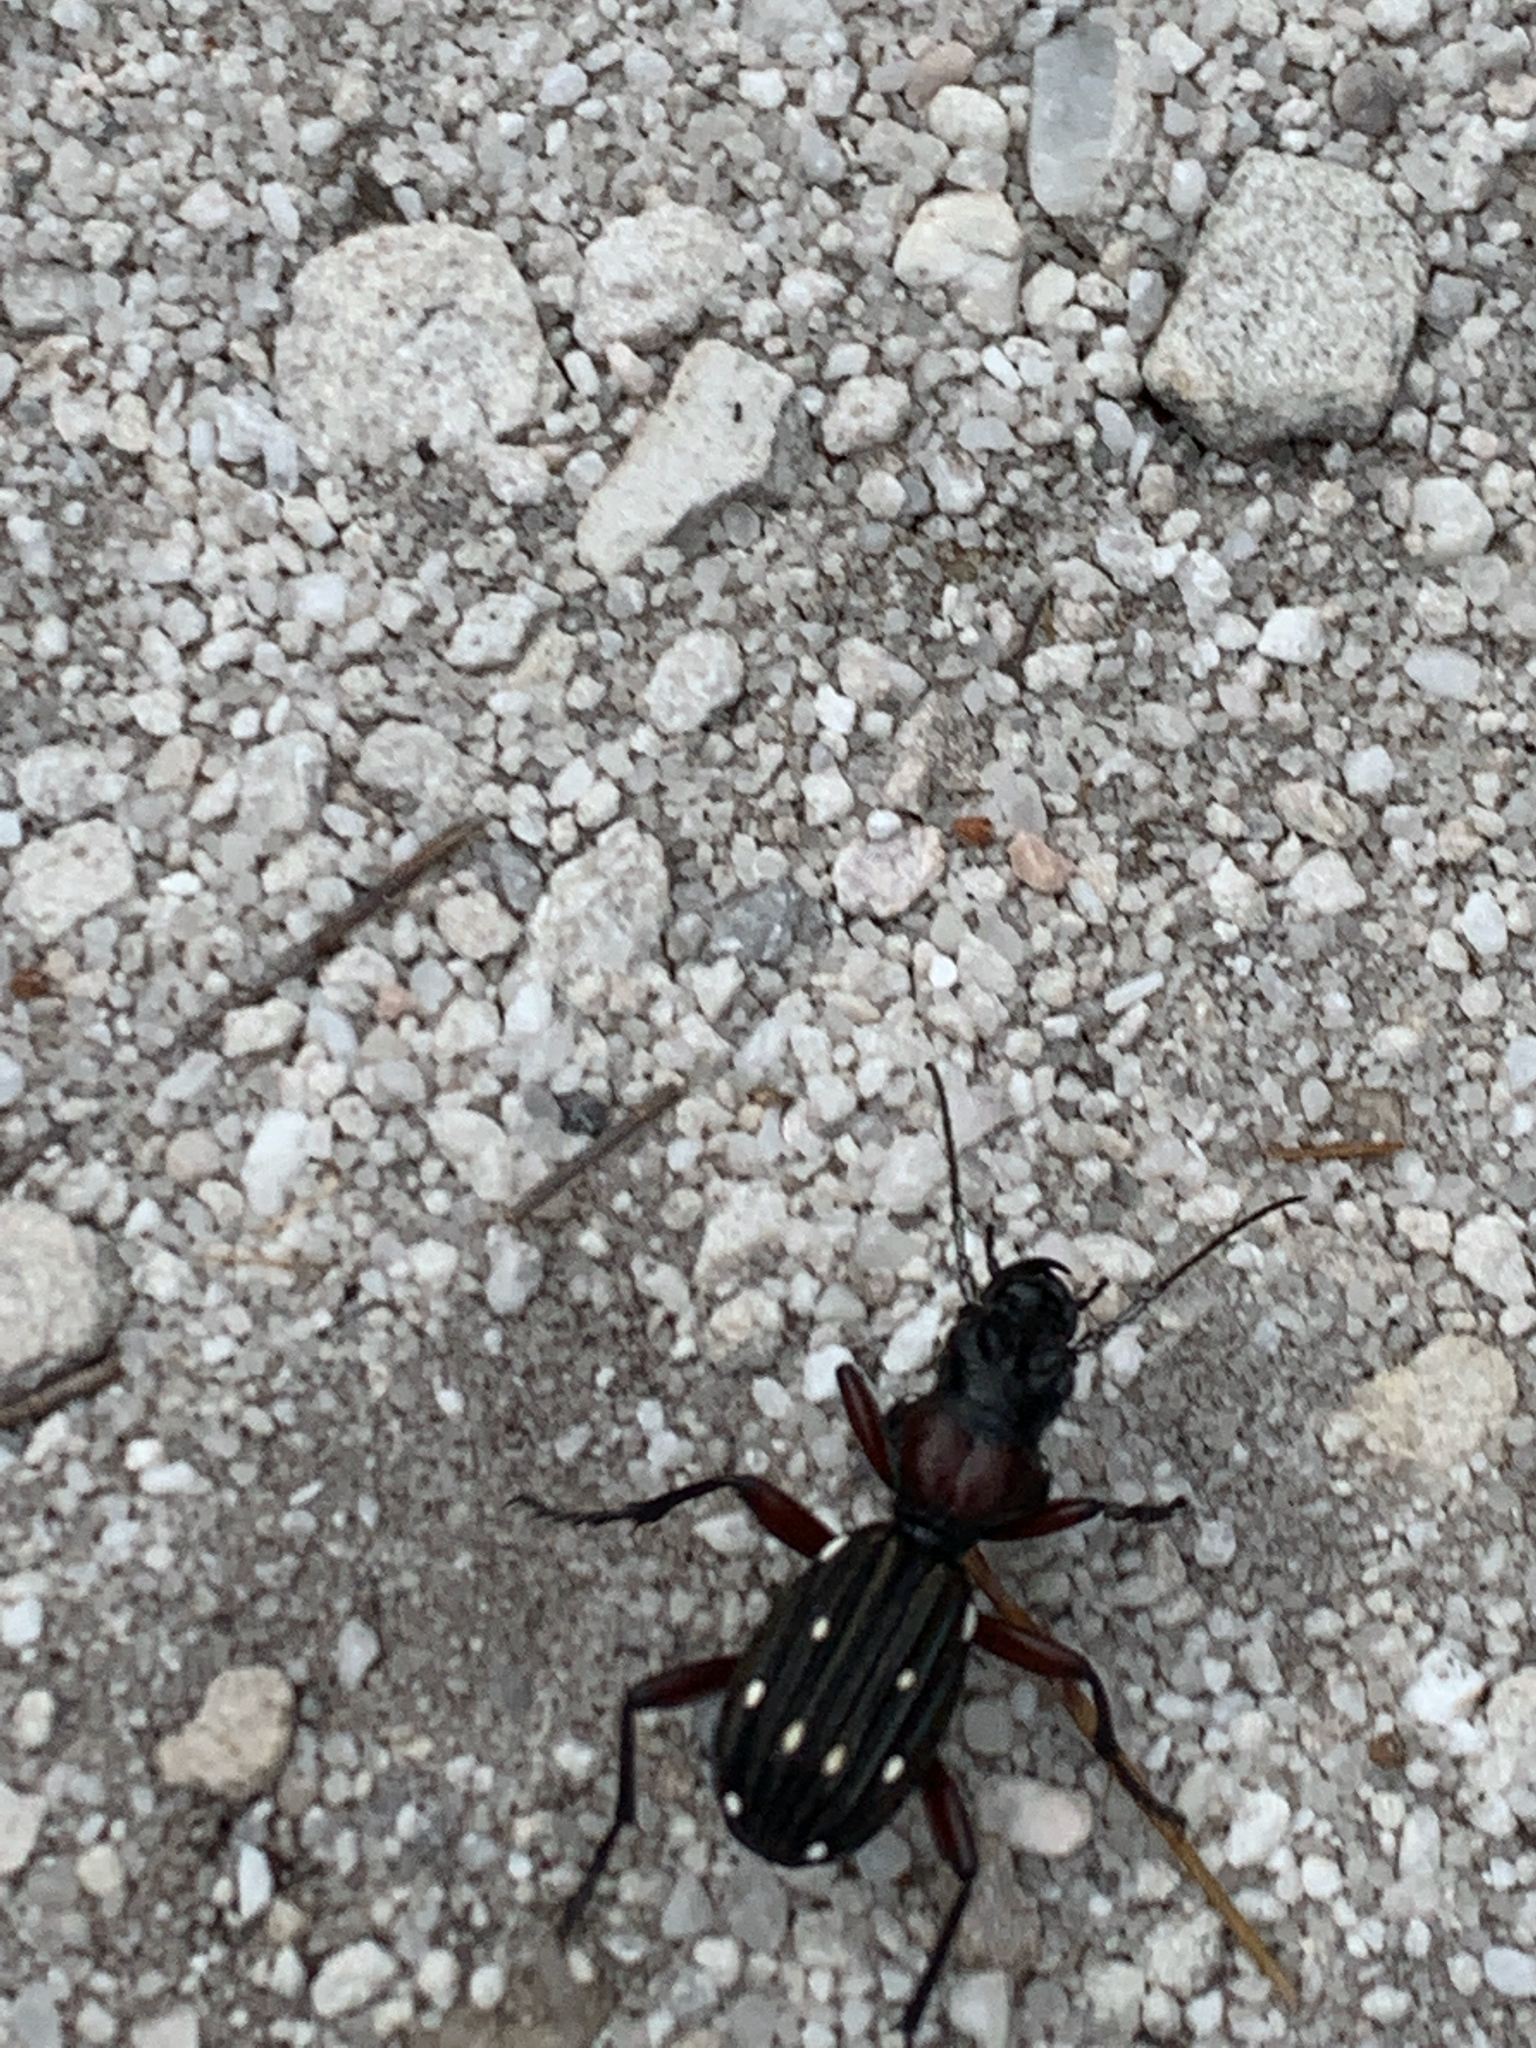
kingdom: Animalia
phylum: Arthropoda
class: Insecta
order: Coleoptera
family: Carabidae
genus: Anthia
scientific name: Anthia decemguttata
